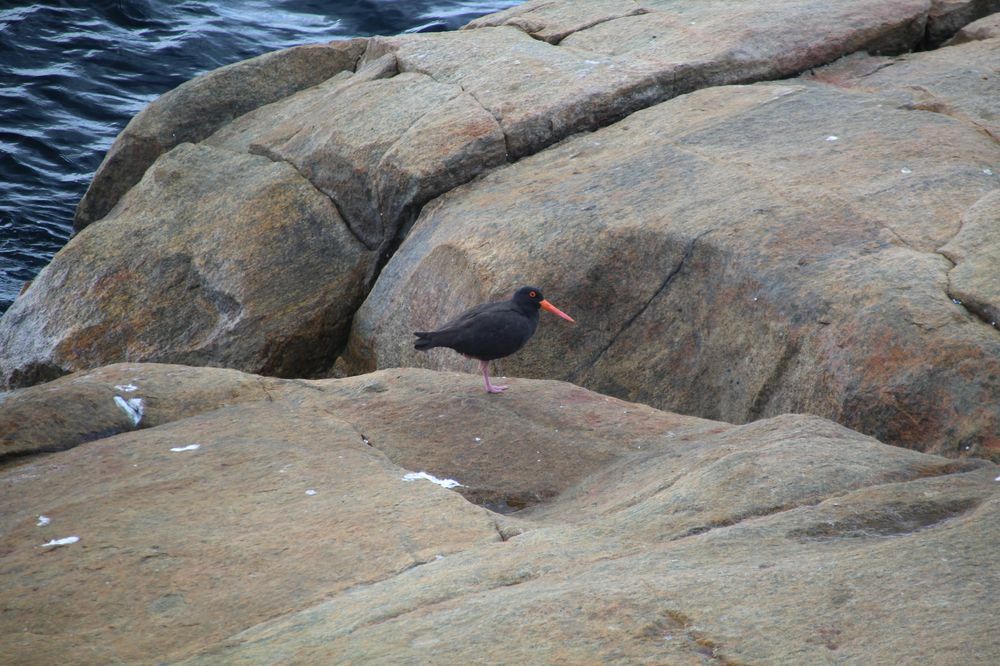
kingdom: Animalia
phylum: Chordata
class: Aves
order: Charadriiformes
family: Haematopodidae
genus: Haematopus
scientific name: Haematopus fuliginosus
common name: Sooty oystercatcher
